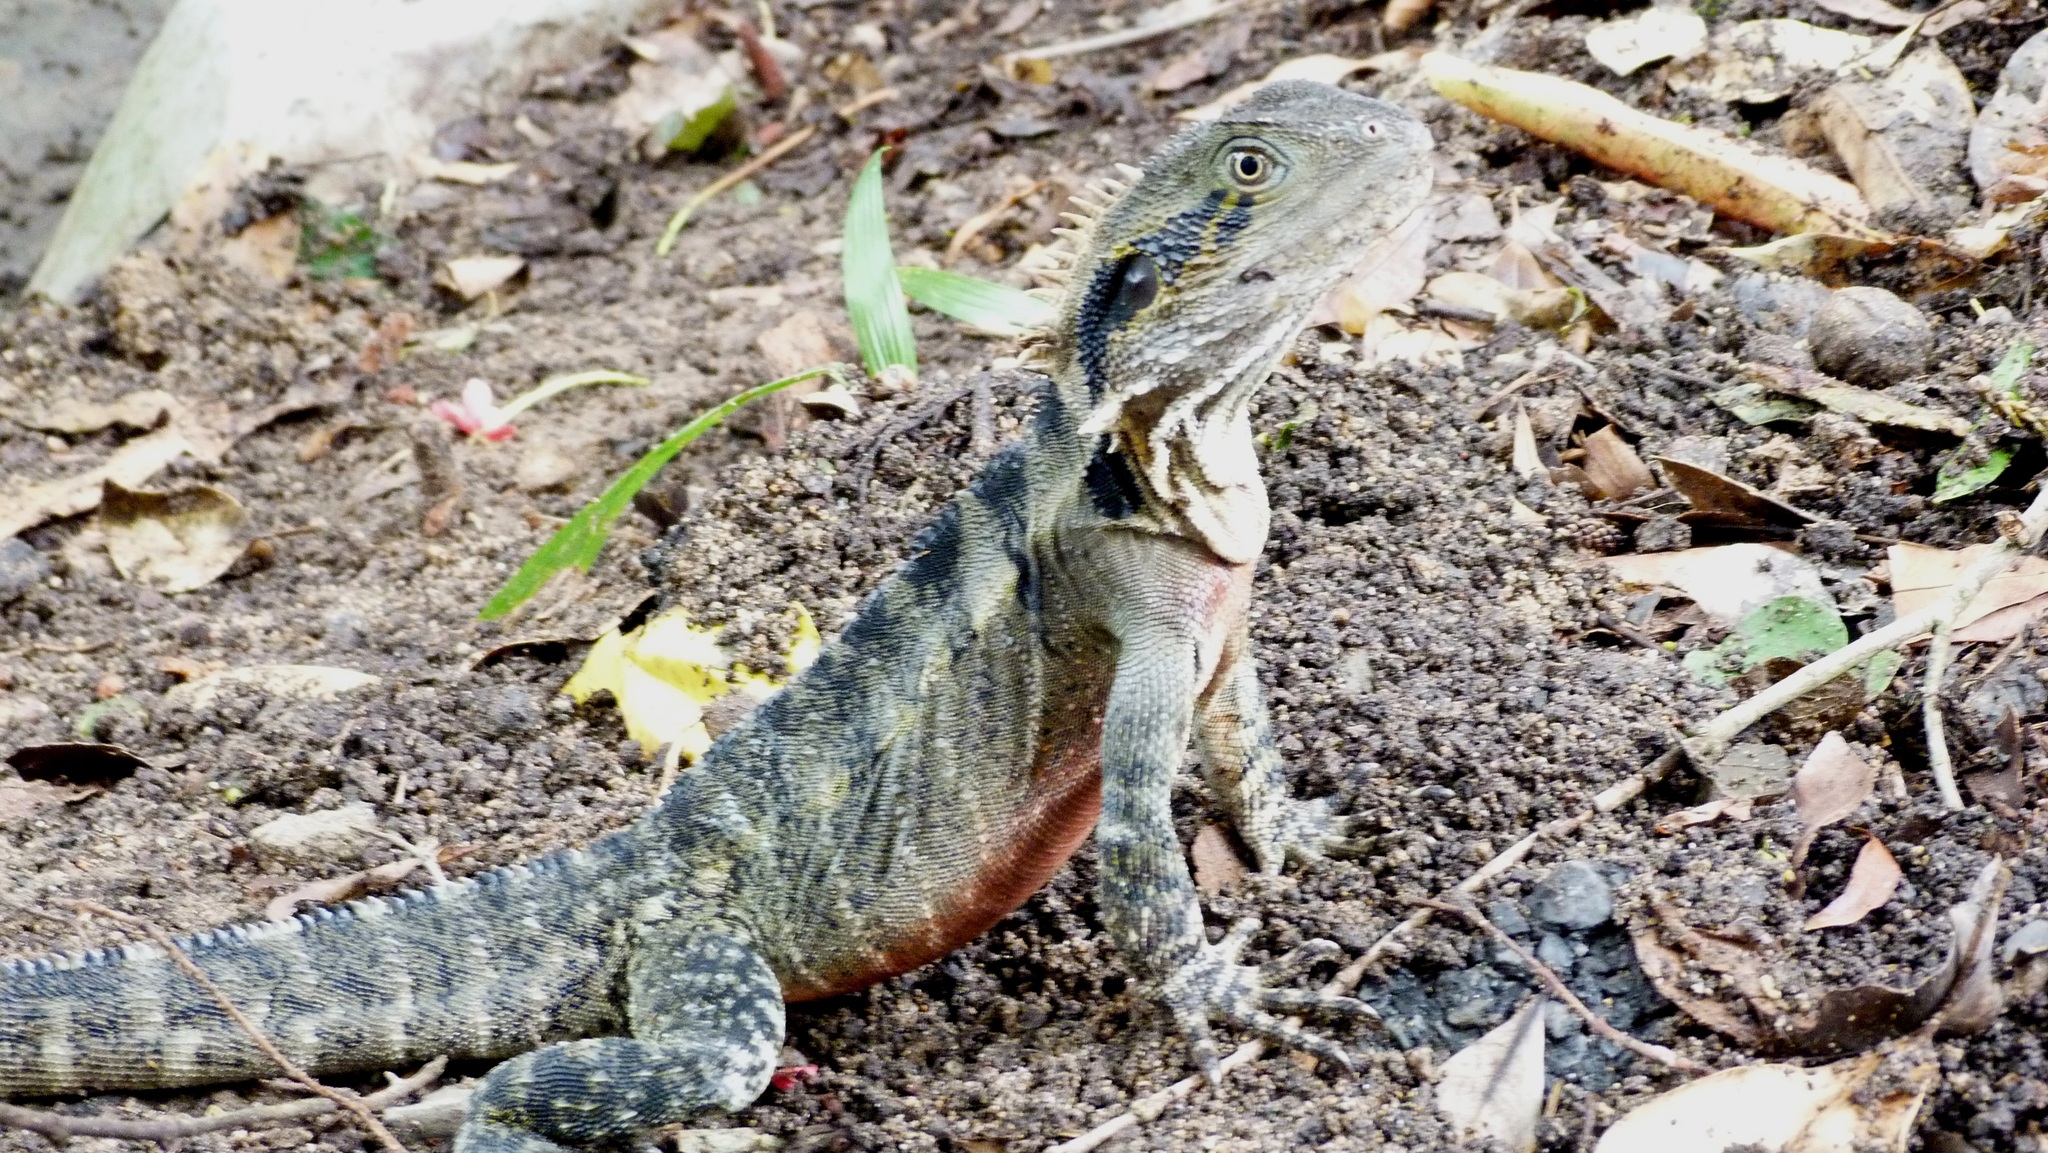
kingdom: Animalia
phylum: Chordata
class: Squamata
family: Agamidae
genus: Intellagama
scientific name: Intellagama lesueurii
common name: Eastern water dragon
